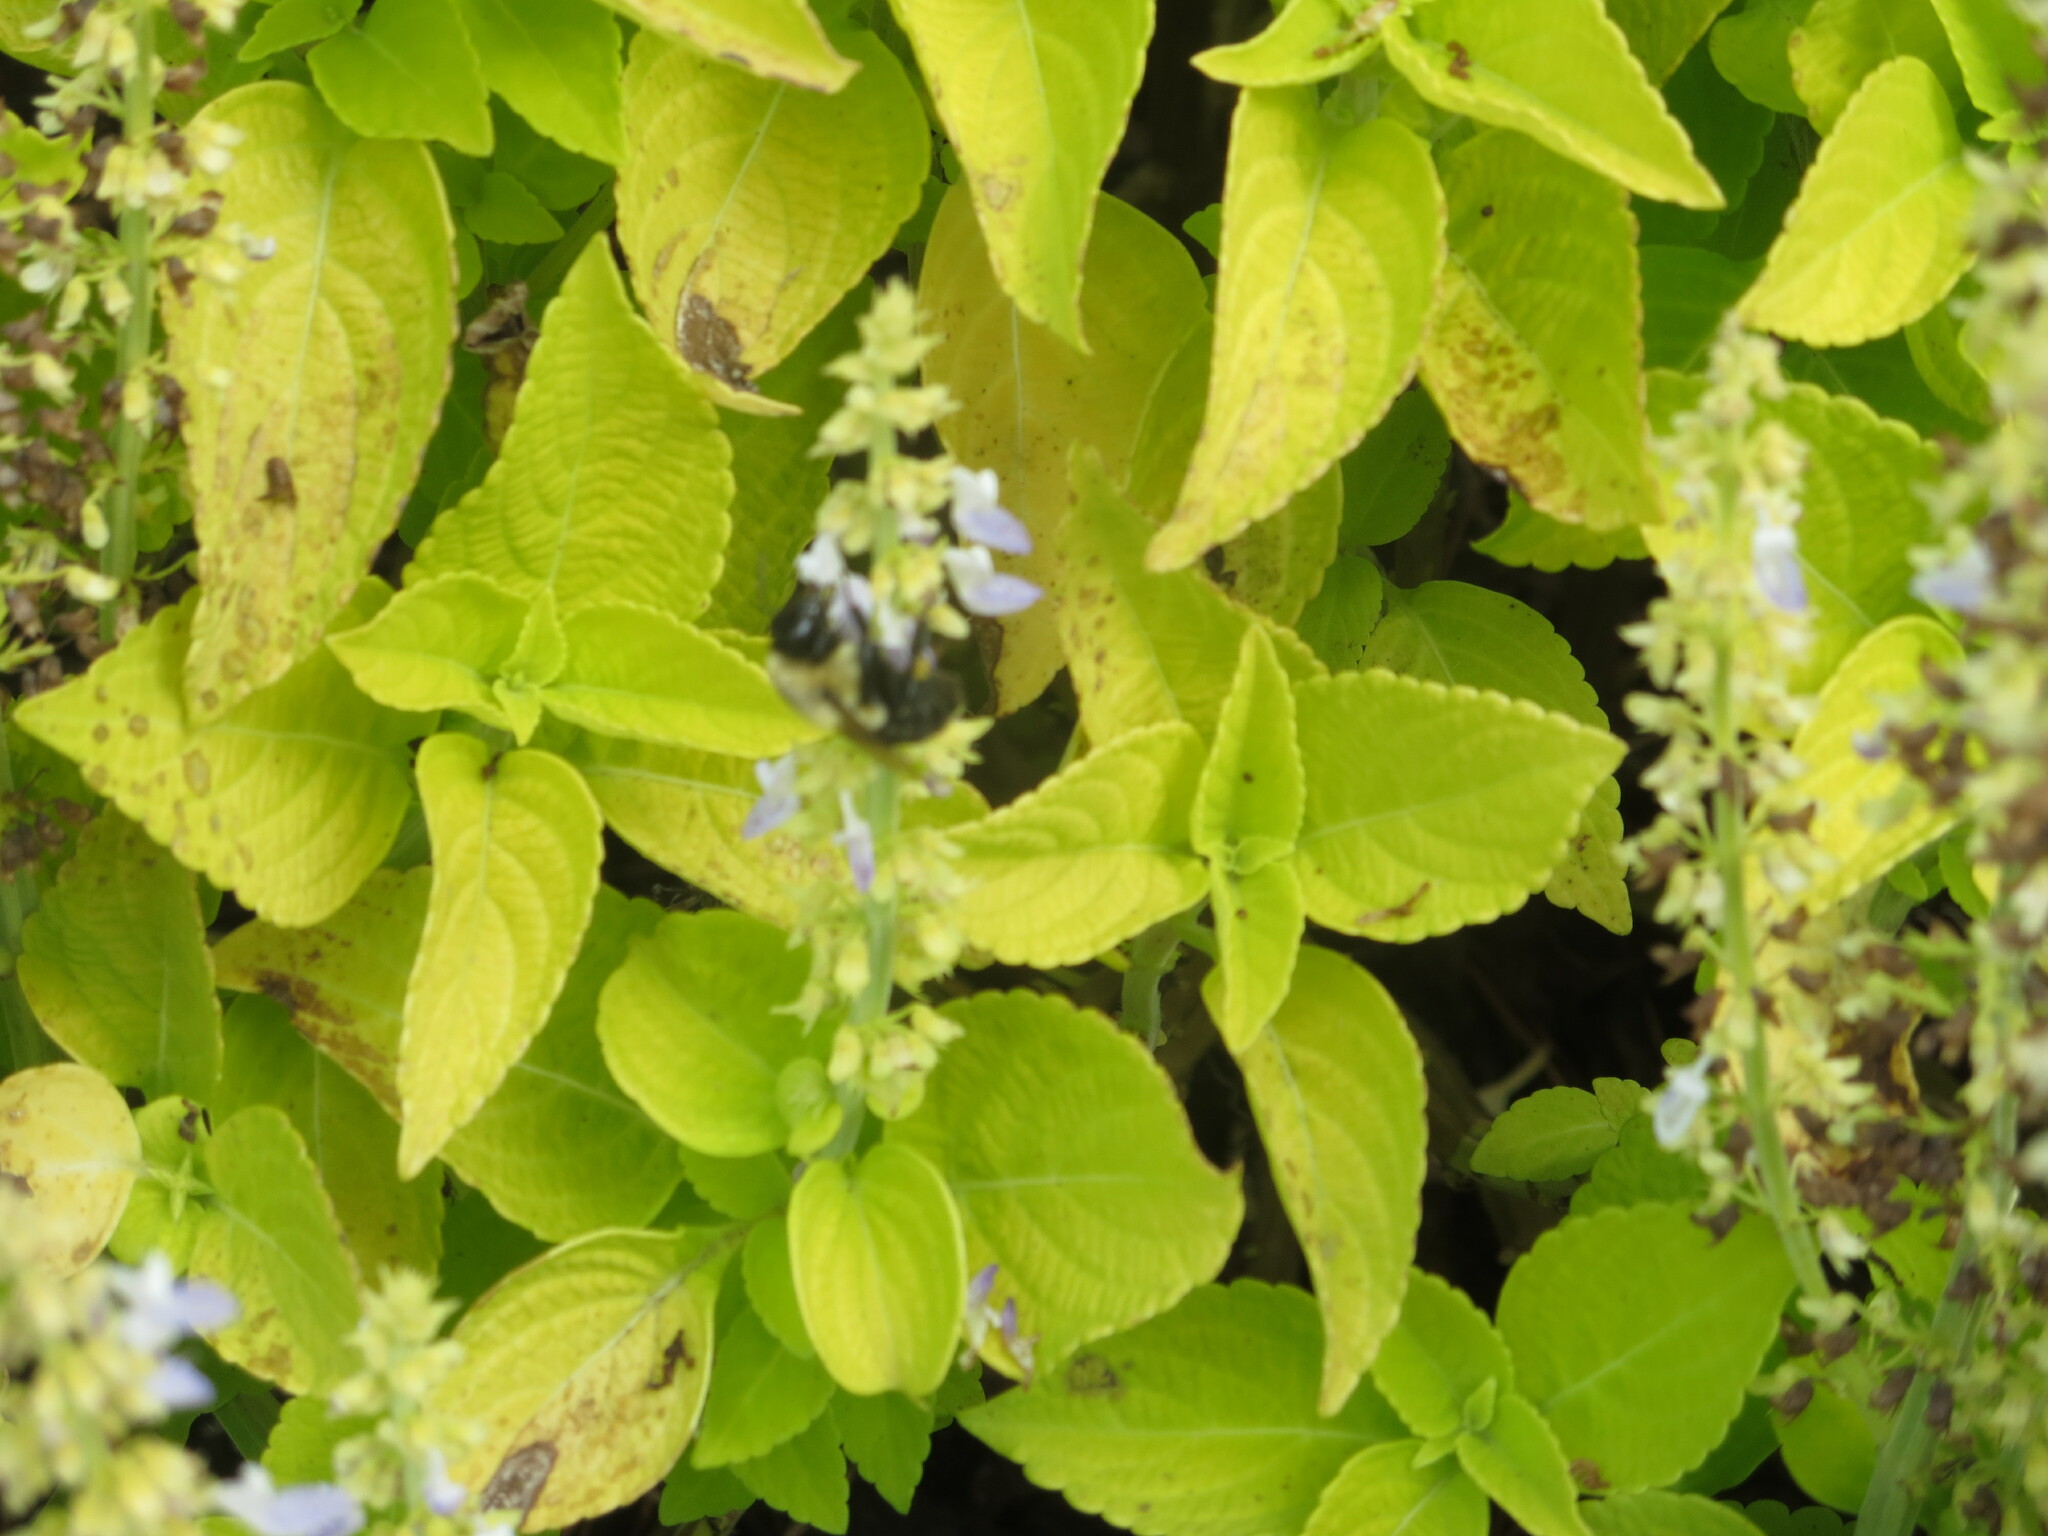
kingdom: Animalia
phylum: Arthropoda
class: Insecta
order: Hymenoptera
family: Apidae
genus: Bombus
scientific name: Bombus impatiens
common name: Common eastern bumble bee
